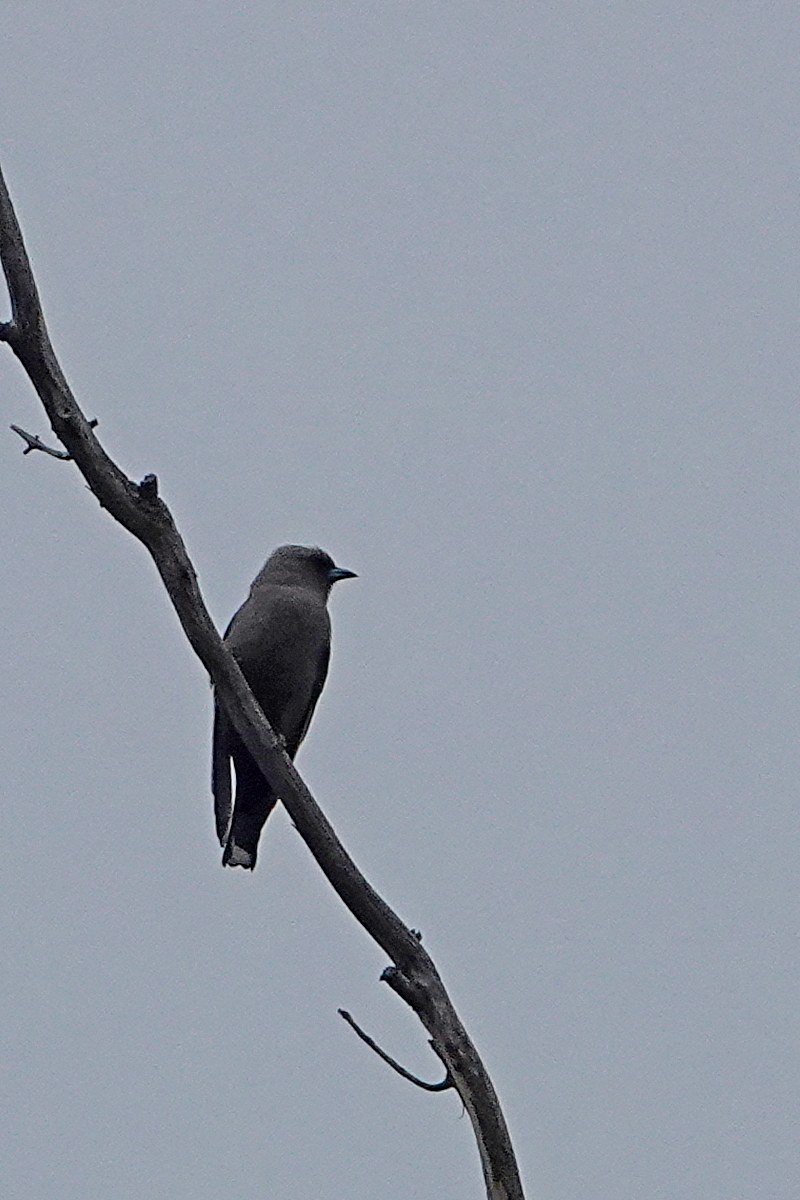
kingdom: Animalia
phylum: Chordata
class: Aves
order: Passeriformes
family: Artamidae
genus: Artamus
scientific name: Artamus cyanopterus
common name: Dusky woodswallow
